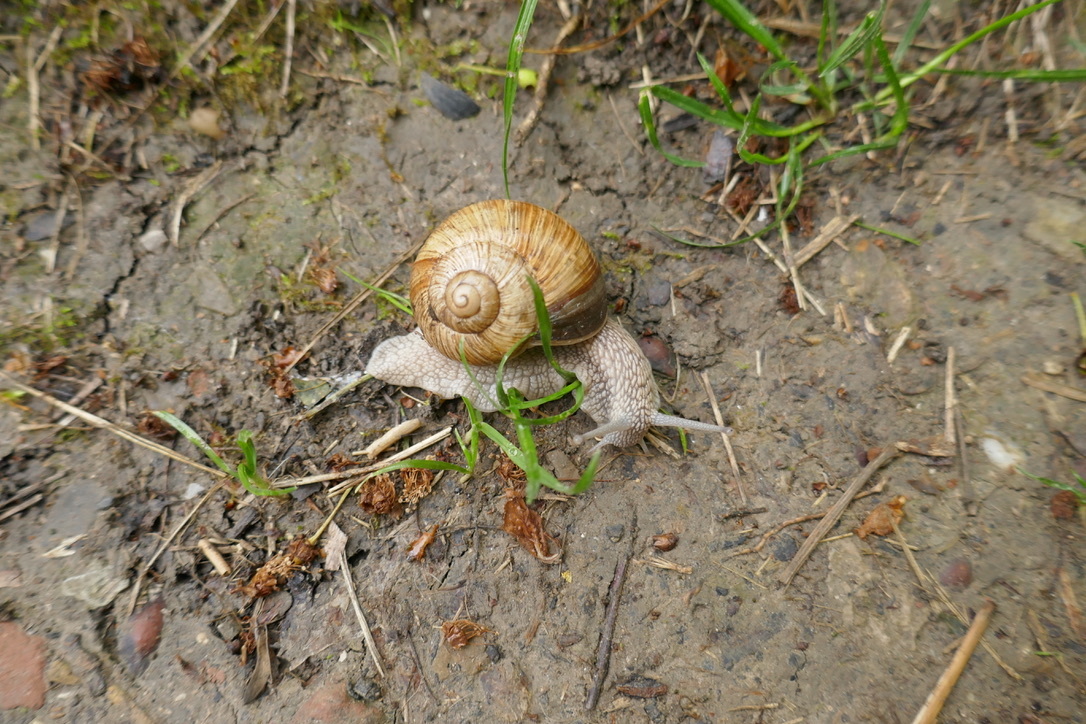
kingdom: Animalia
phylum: Mollusca
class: Gastropoda
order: Stylommatophora
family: Helicidae
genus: Helix
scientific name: Helix pomatia
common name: Roman snail
